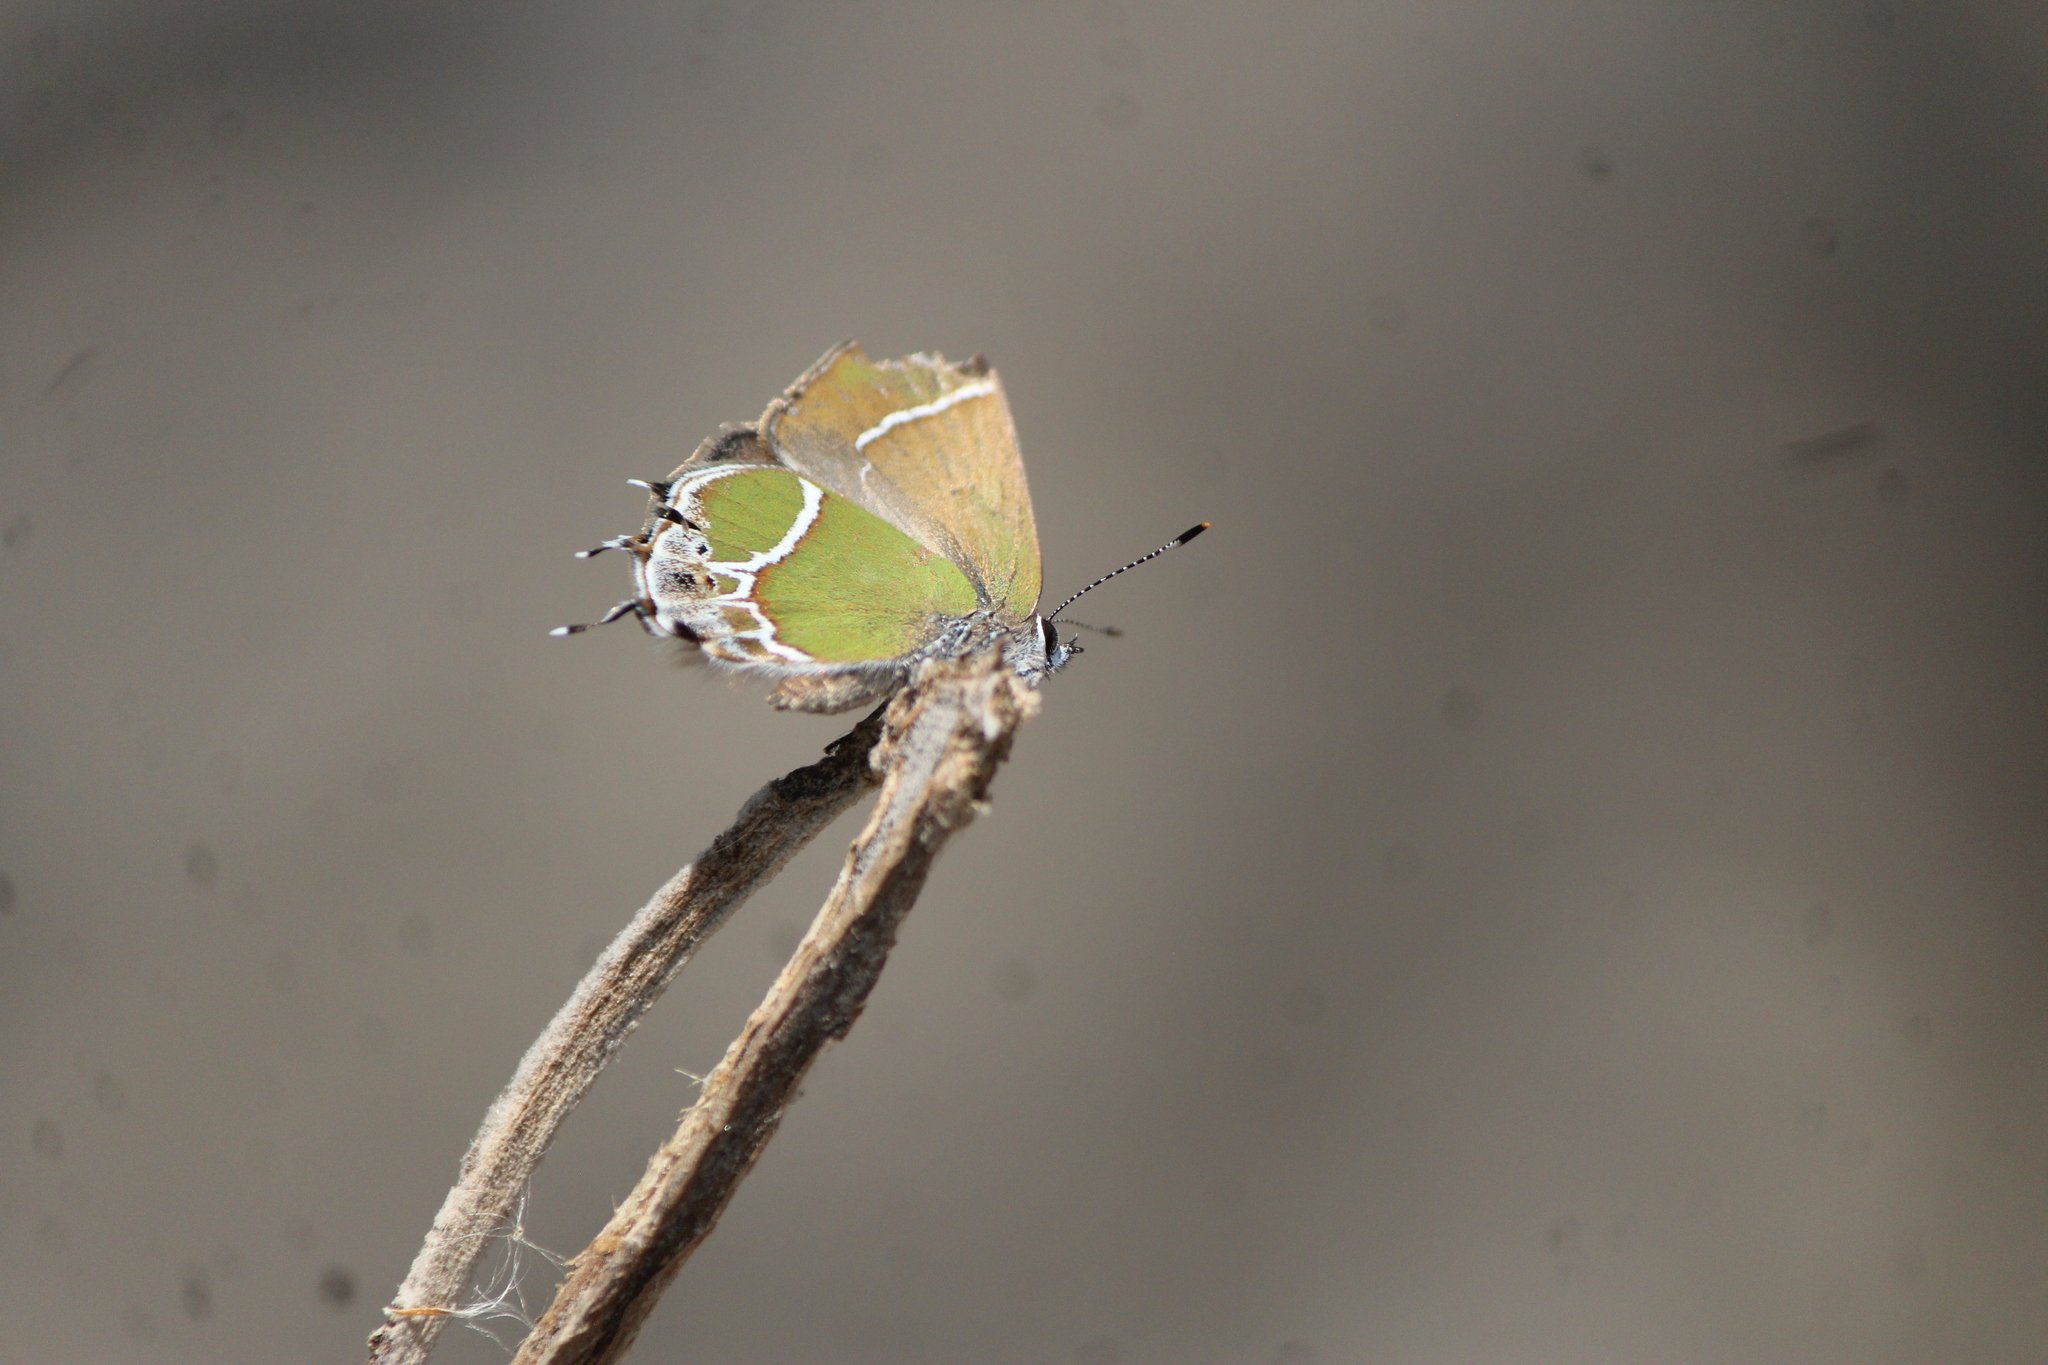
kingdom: Animalia
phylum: Arthropoda
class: Insecta
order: Lepidoptera
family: Lycaenidae
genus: Xamia
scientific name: Xamia xami
